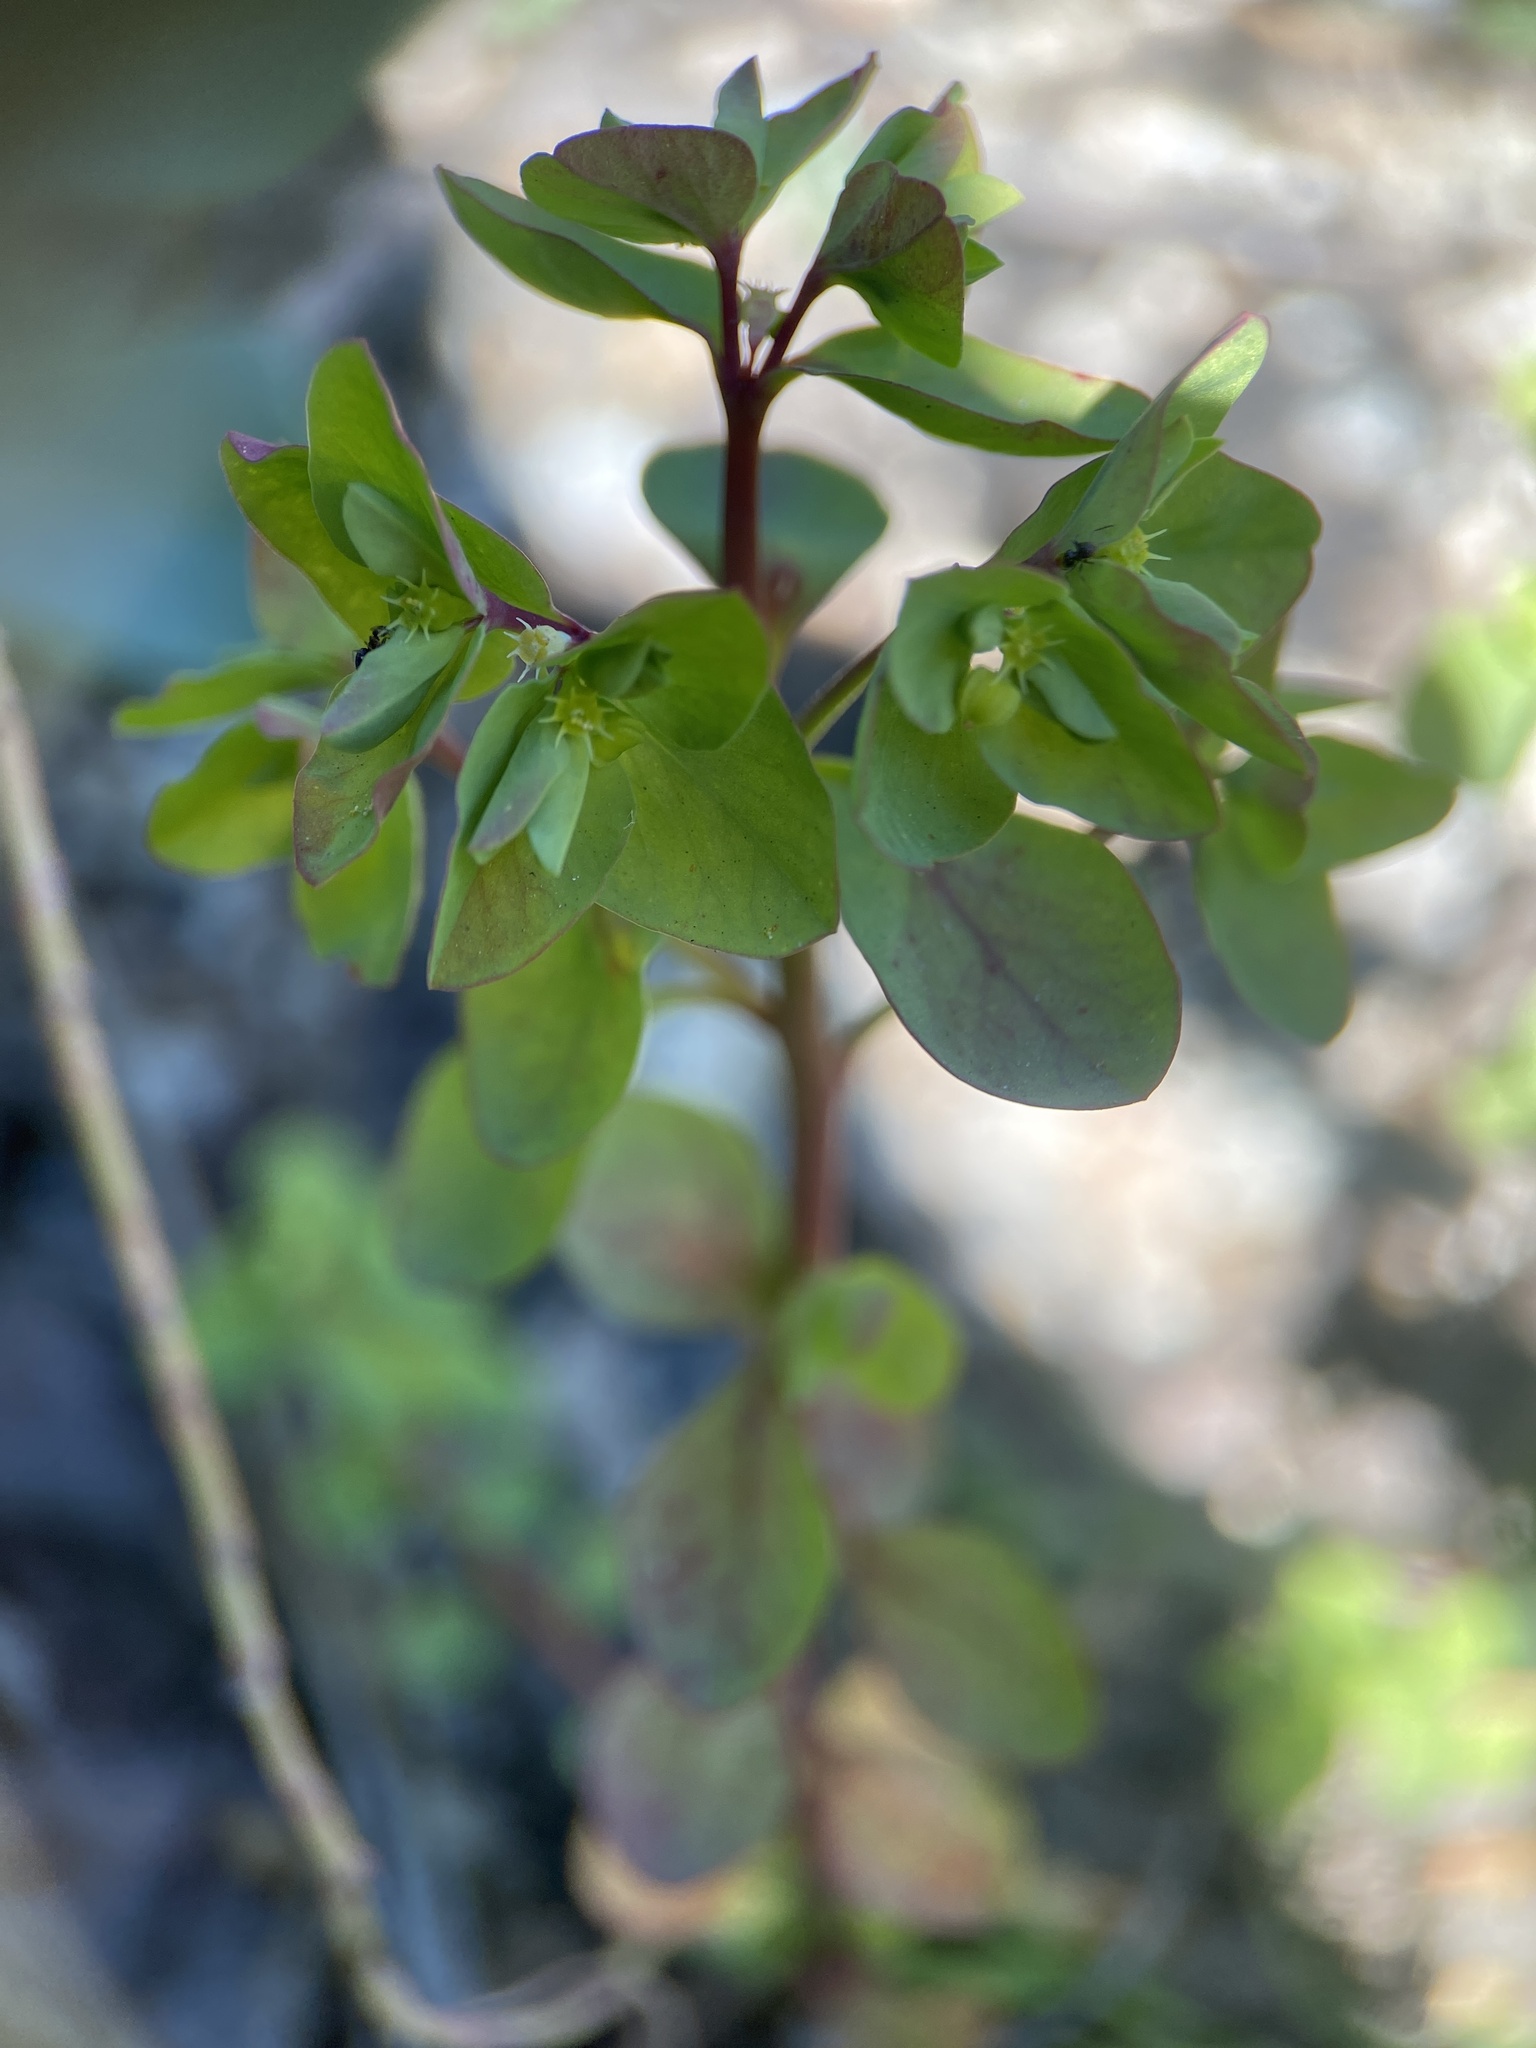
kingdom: Plantae
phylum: Tracheophyta
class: Magnoliopsida
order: Malpighiales
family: Euphorbiaceae
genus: Euphorbia
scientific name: Euphorbia peplus
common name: Petty spurge
